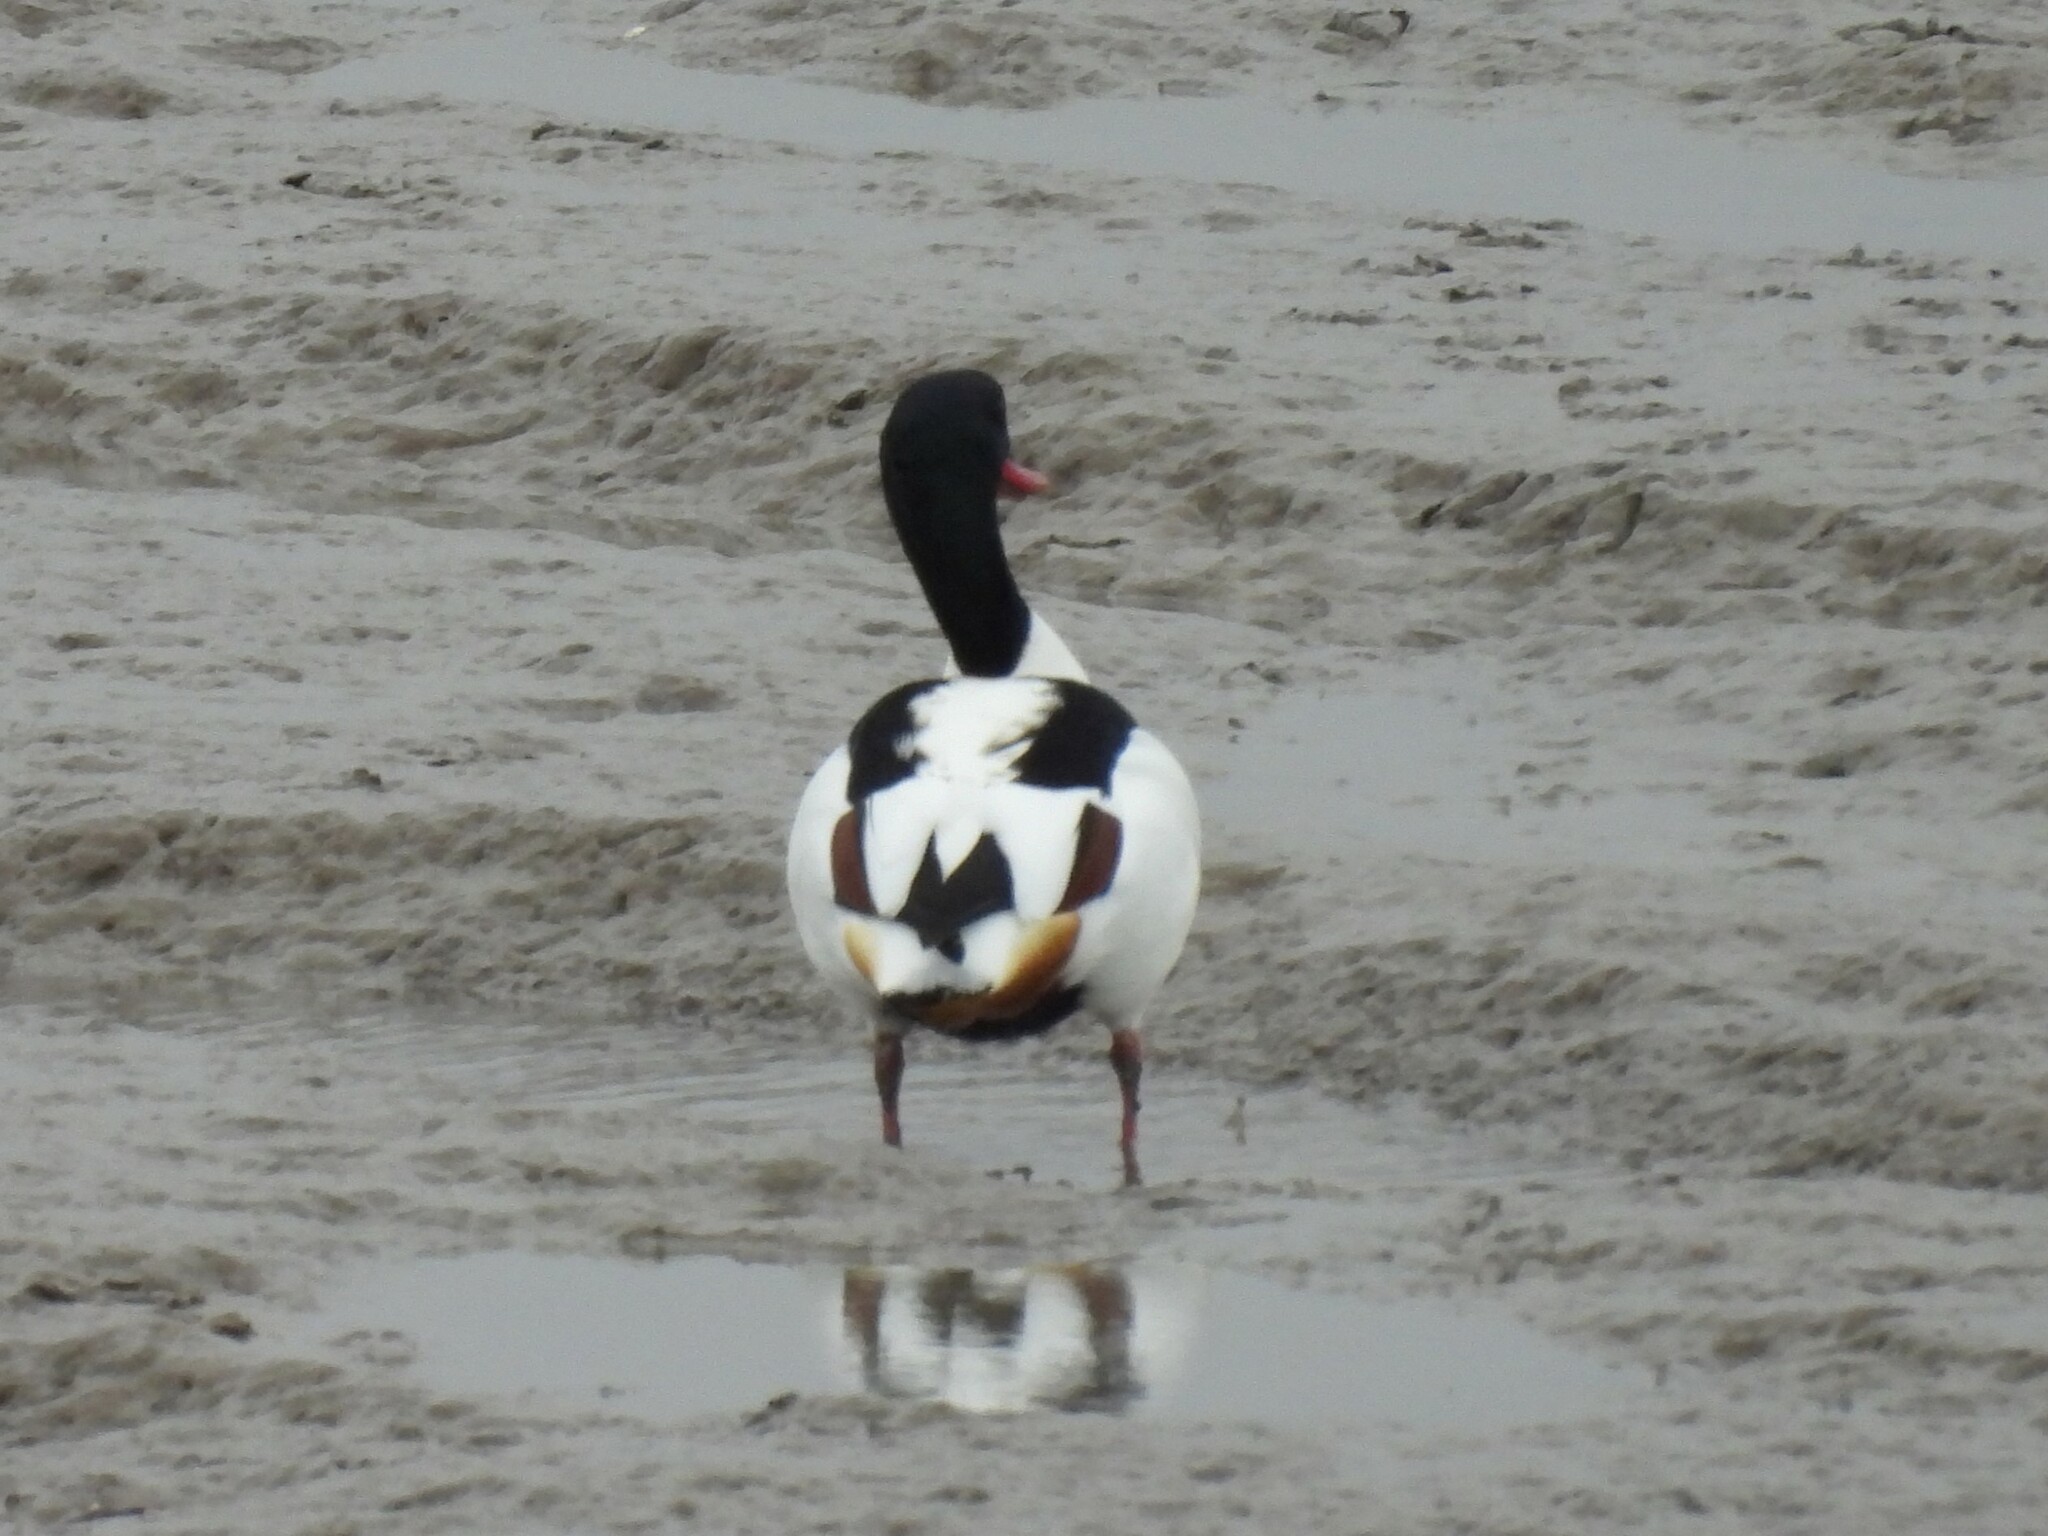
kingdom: Animalia
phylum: Chordata
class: Aves
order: Anseriformes
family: Anatidae
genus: Tadorna
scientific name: Tadorna tadorna
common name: Common shelduck
